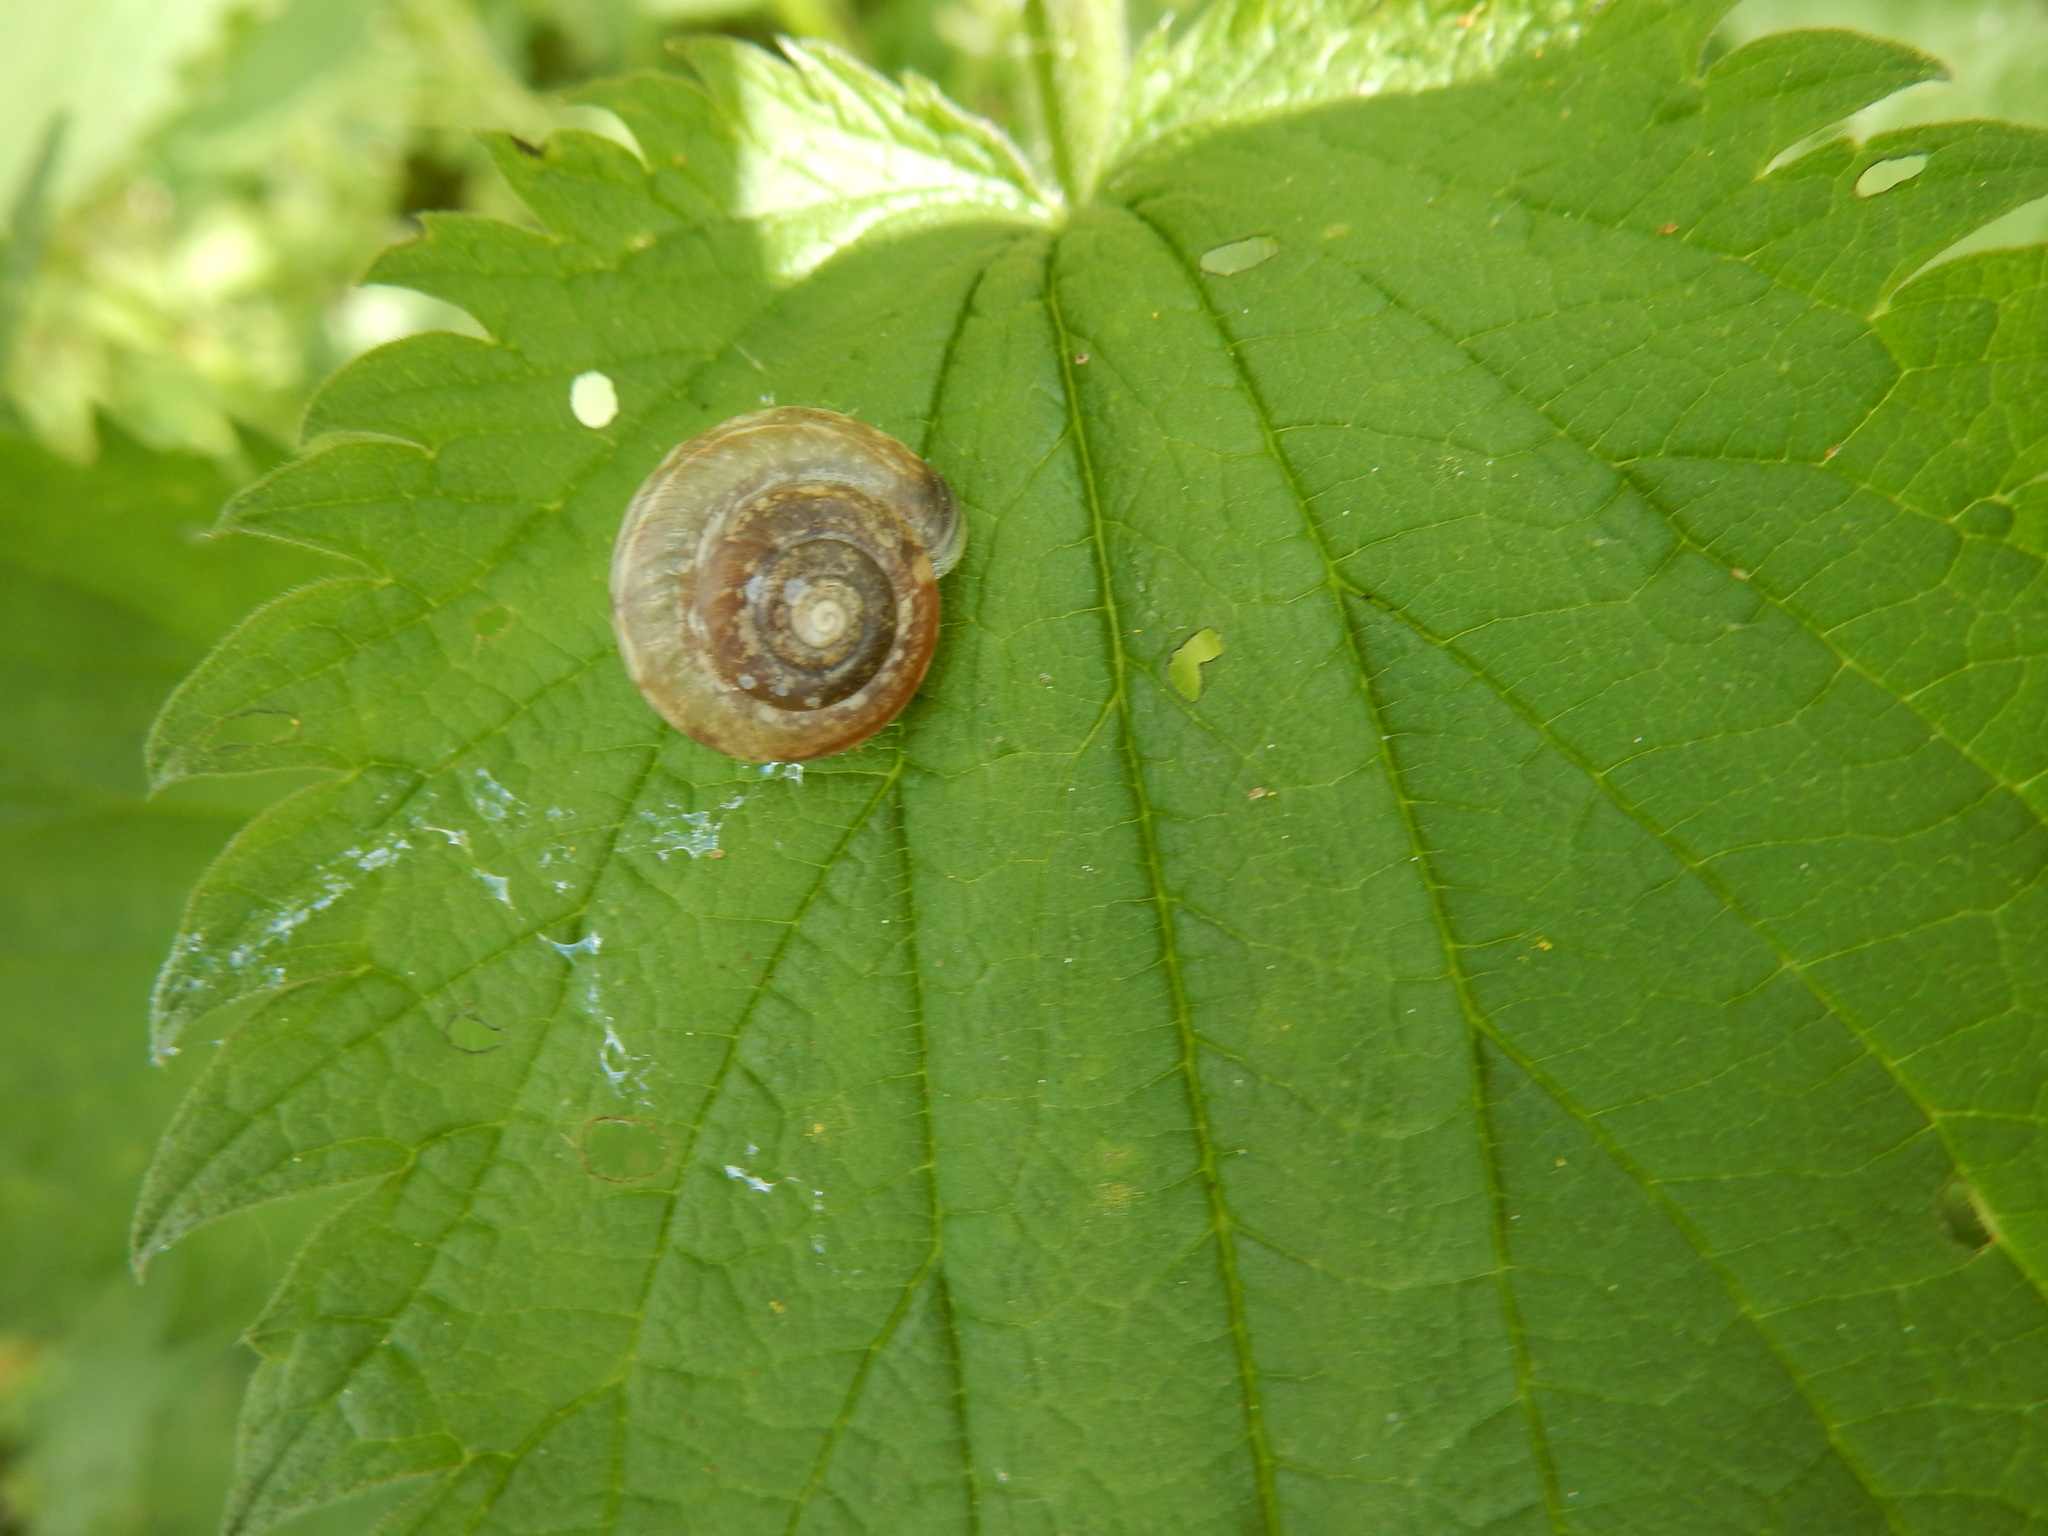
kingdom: Animalia
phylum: Mollusca
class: Gastropoda
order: Stylommatophora
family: Hygromiidae
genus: Urticicola
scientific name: Urticicola umbrosus
